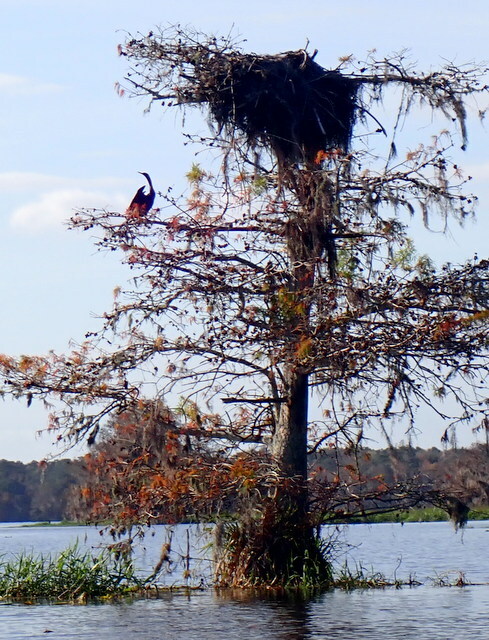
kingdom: Animalia
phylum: Chordata
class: Aves
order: Suliformes
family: Anhingidae
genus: Anhinga
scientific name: Anhinga anhinga
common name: Anhinga
